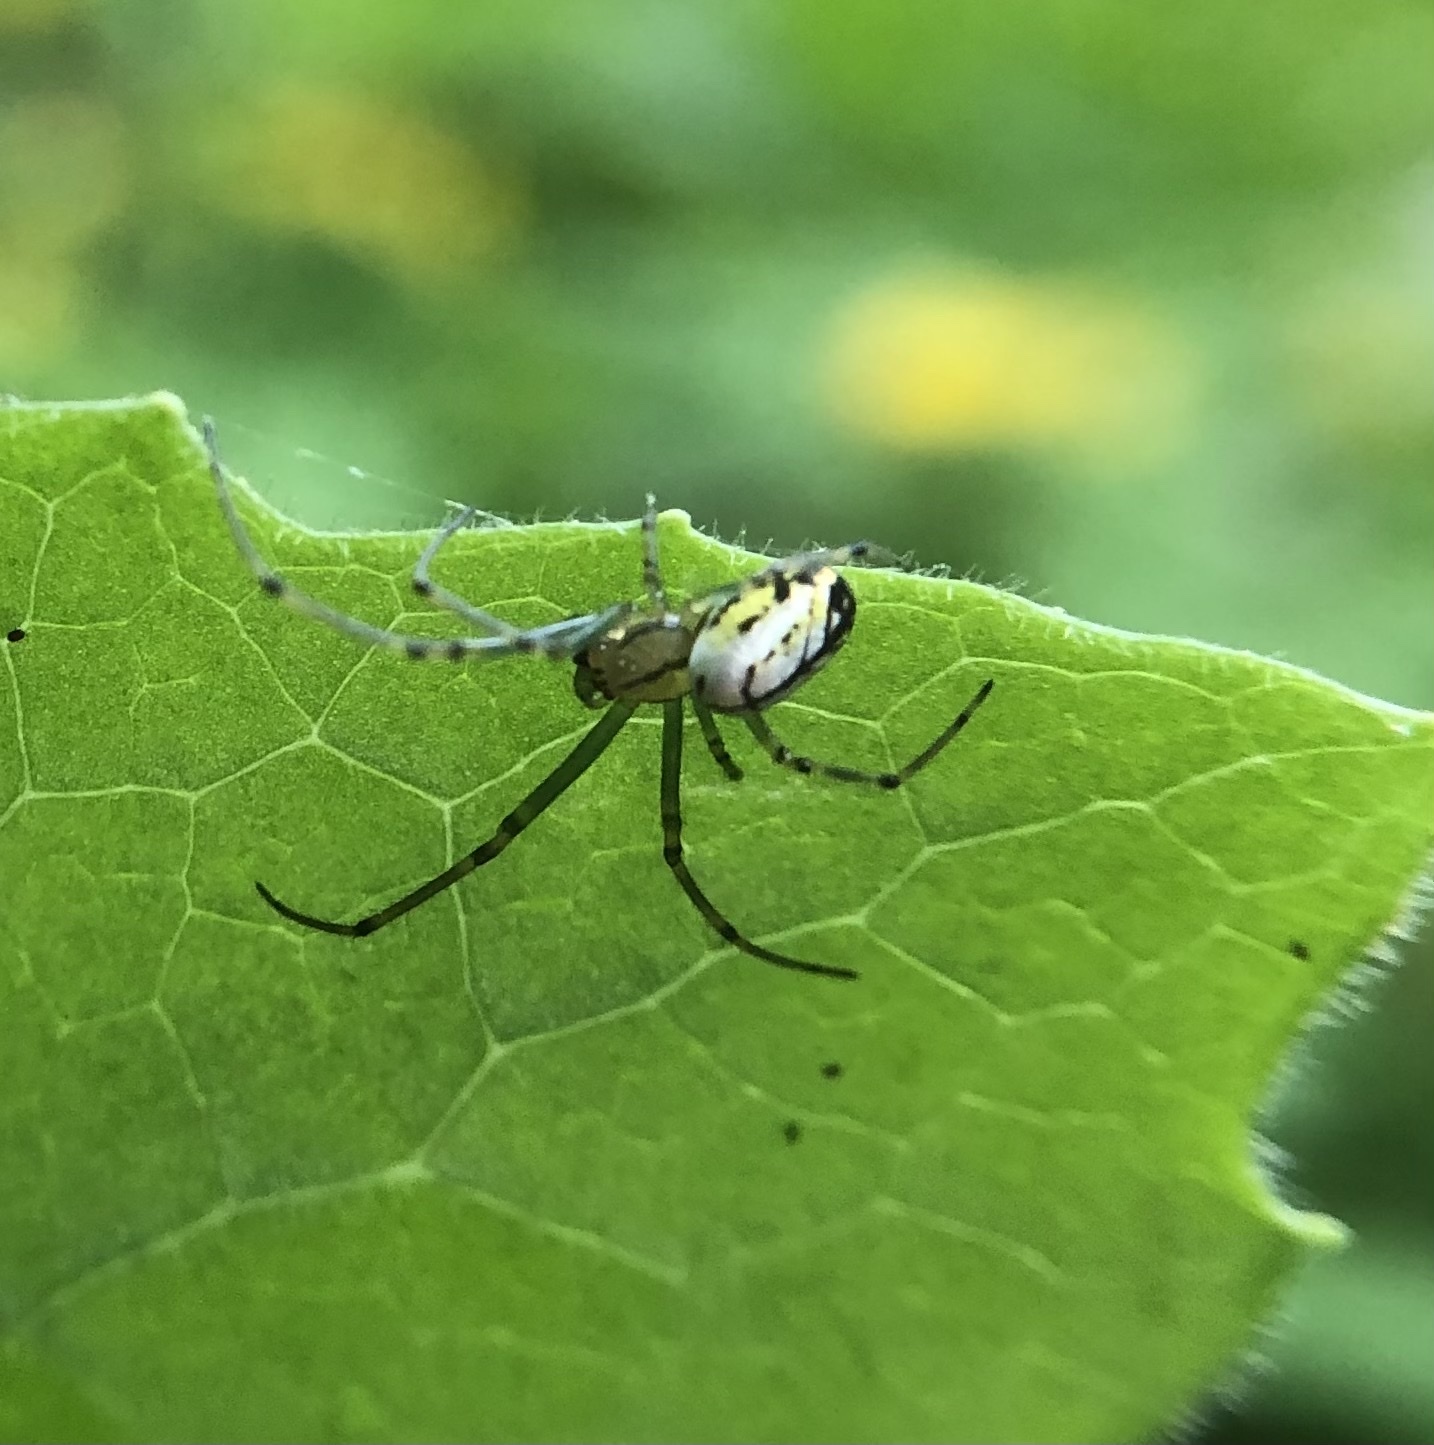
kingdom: Animalia
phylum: Arthropoda
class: Arachnida
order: Araneae
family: Tetragnathidae
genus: Leucauge
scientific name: Leucauge venusta
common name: Longjawed orb weavers
